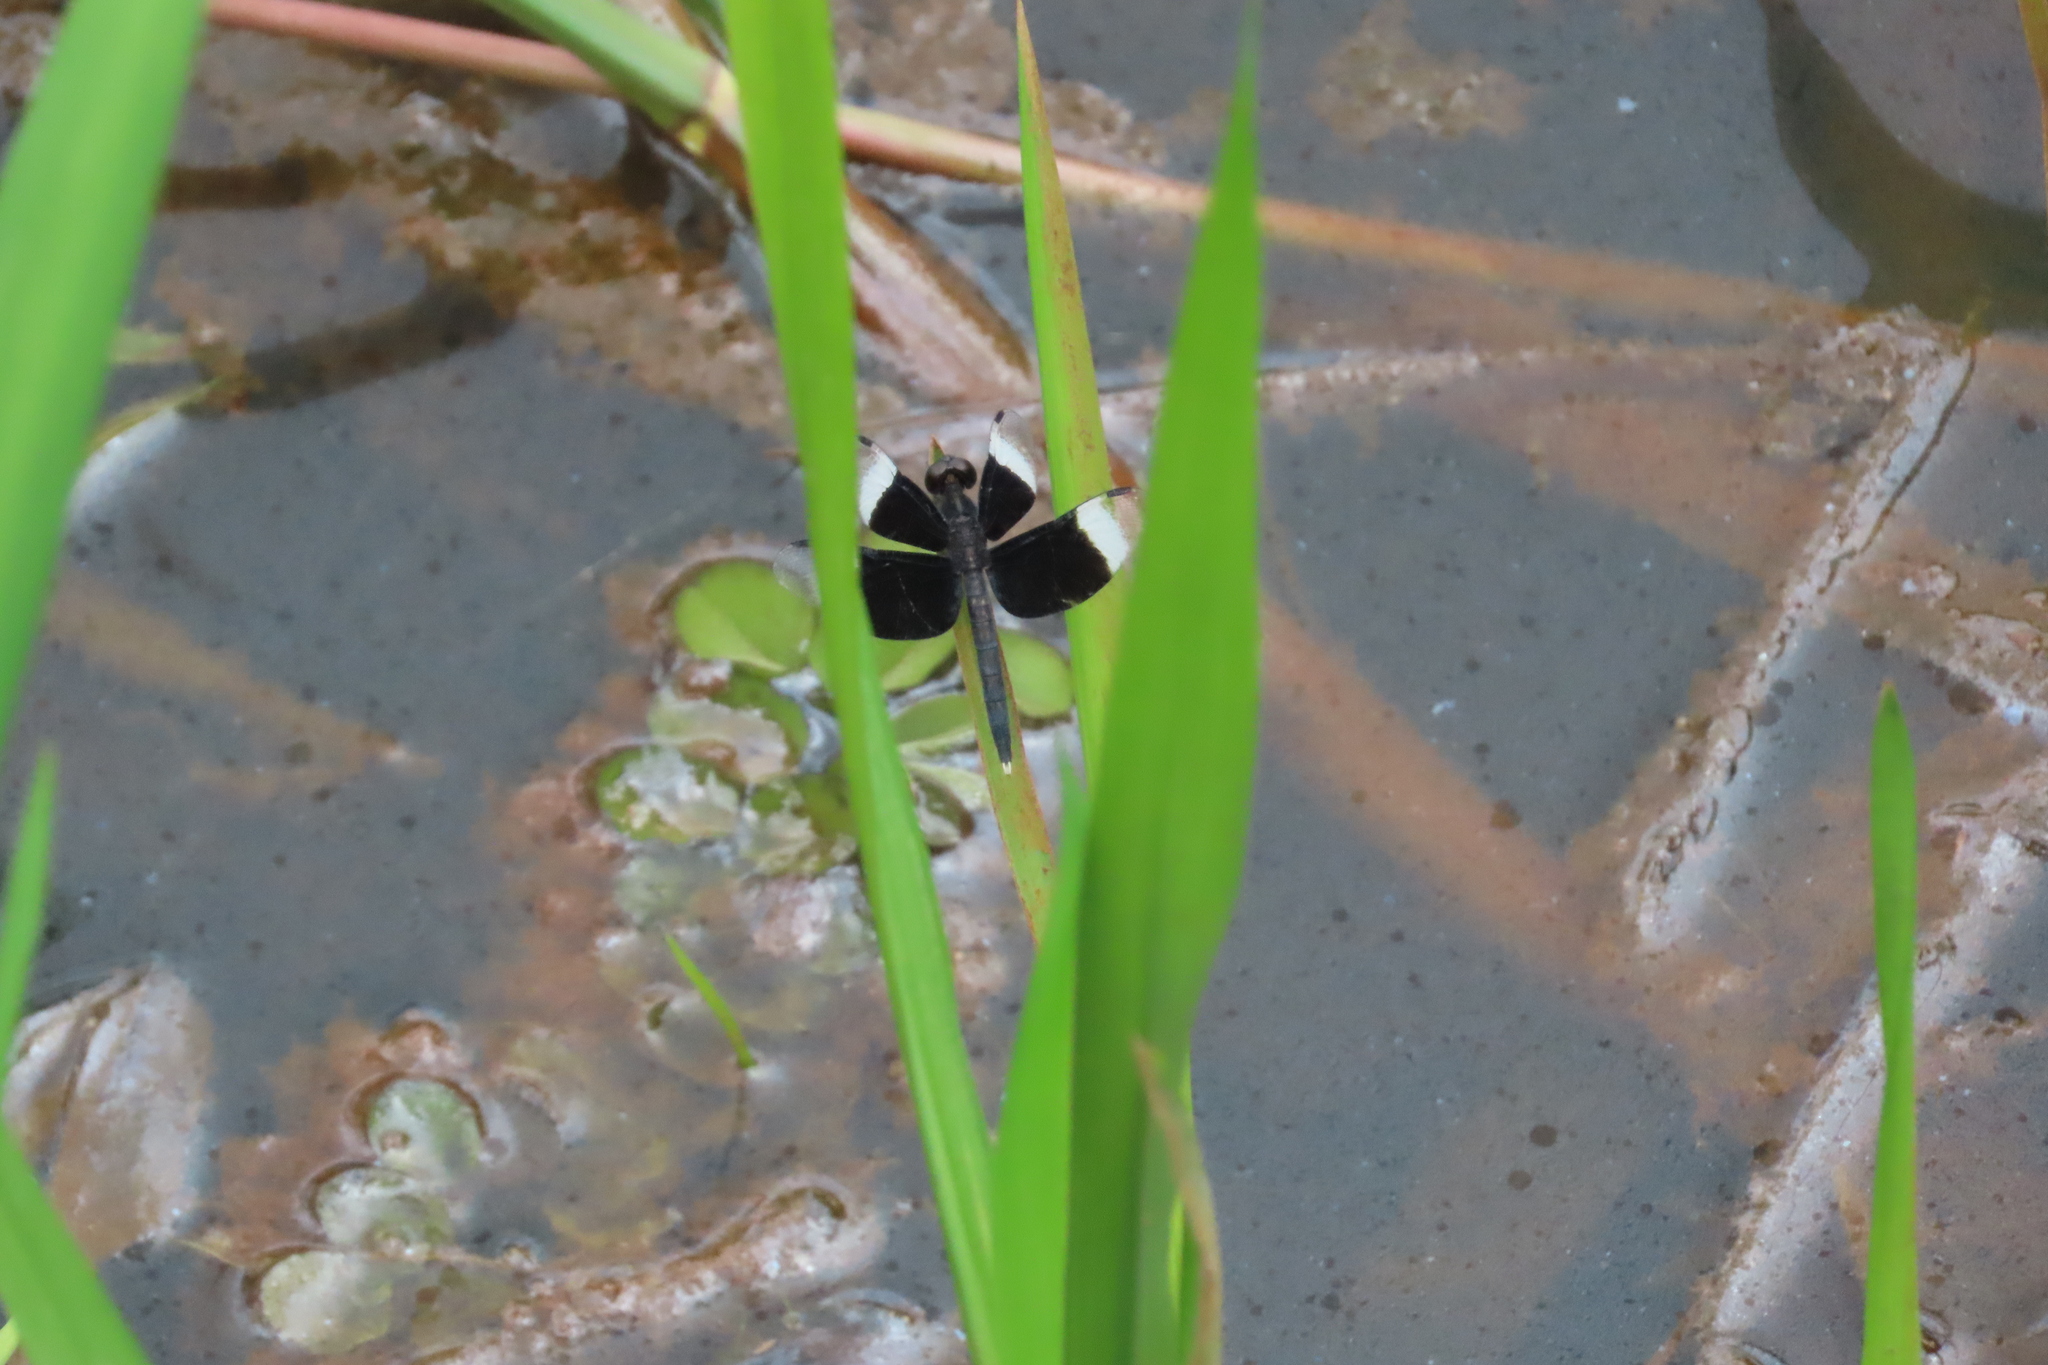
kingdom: Animalia
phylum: Arthropoda
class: Insecta
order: Odonata
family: Libellulidae
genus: Neurothemis
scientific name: Neurothemis tullia
